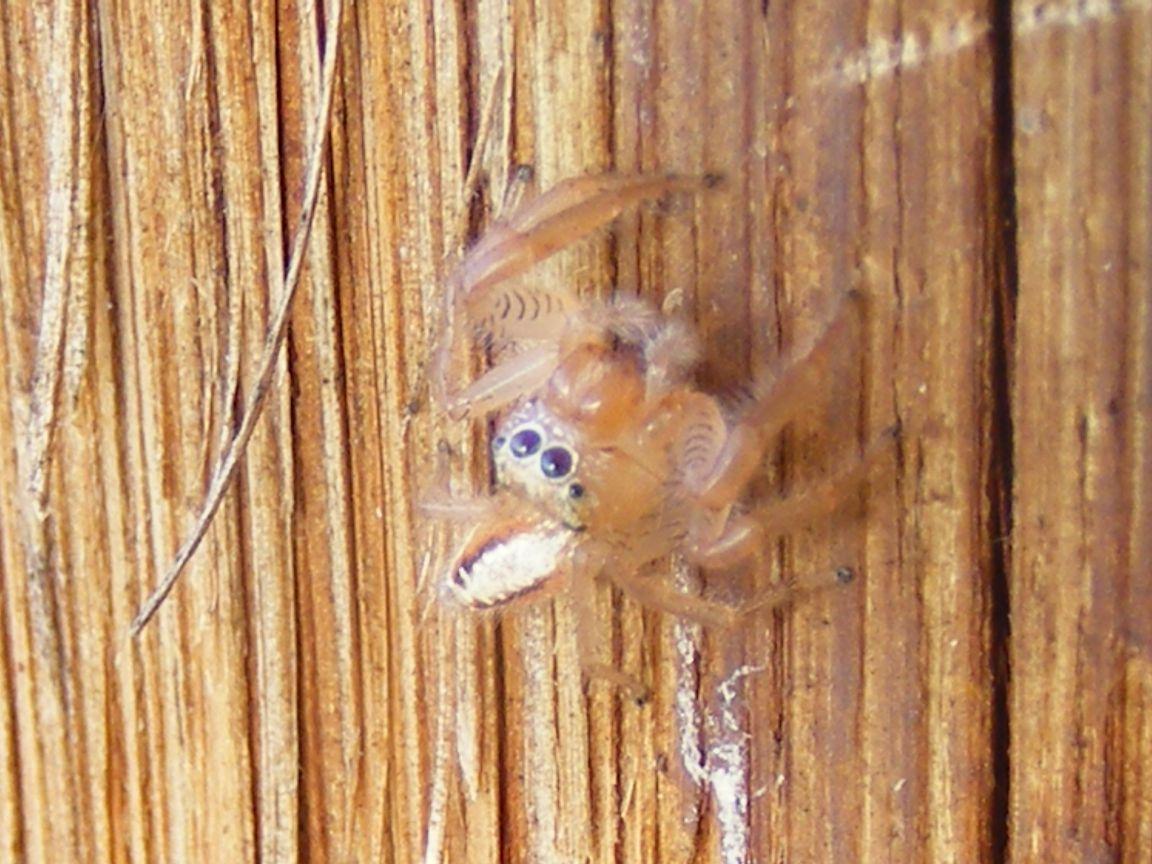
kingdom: Animalia
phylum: Arthropoda
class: Arachnida
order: Araneae
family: Salticidae
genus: Thyene
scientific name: Thyene ogdeni
